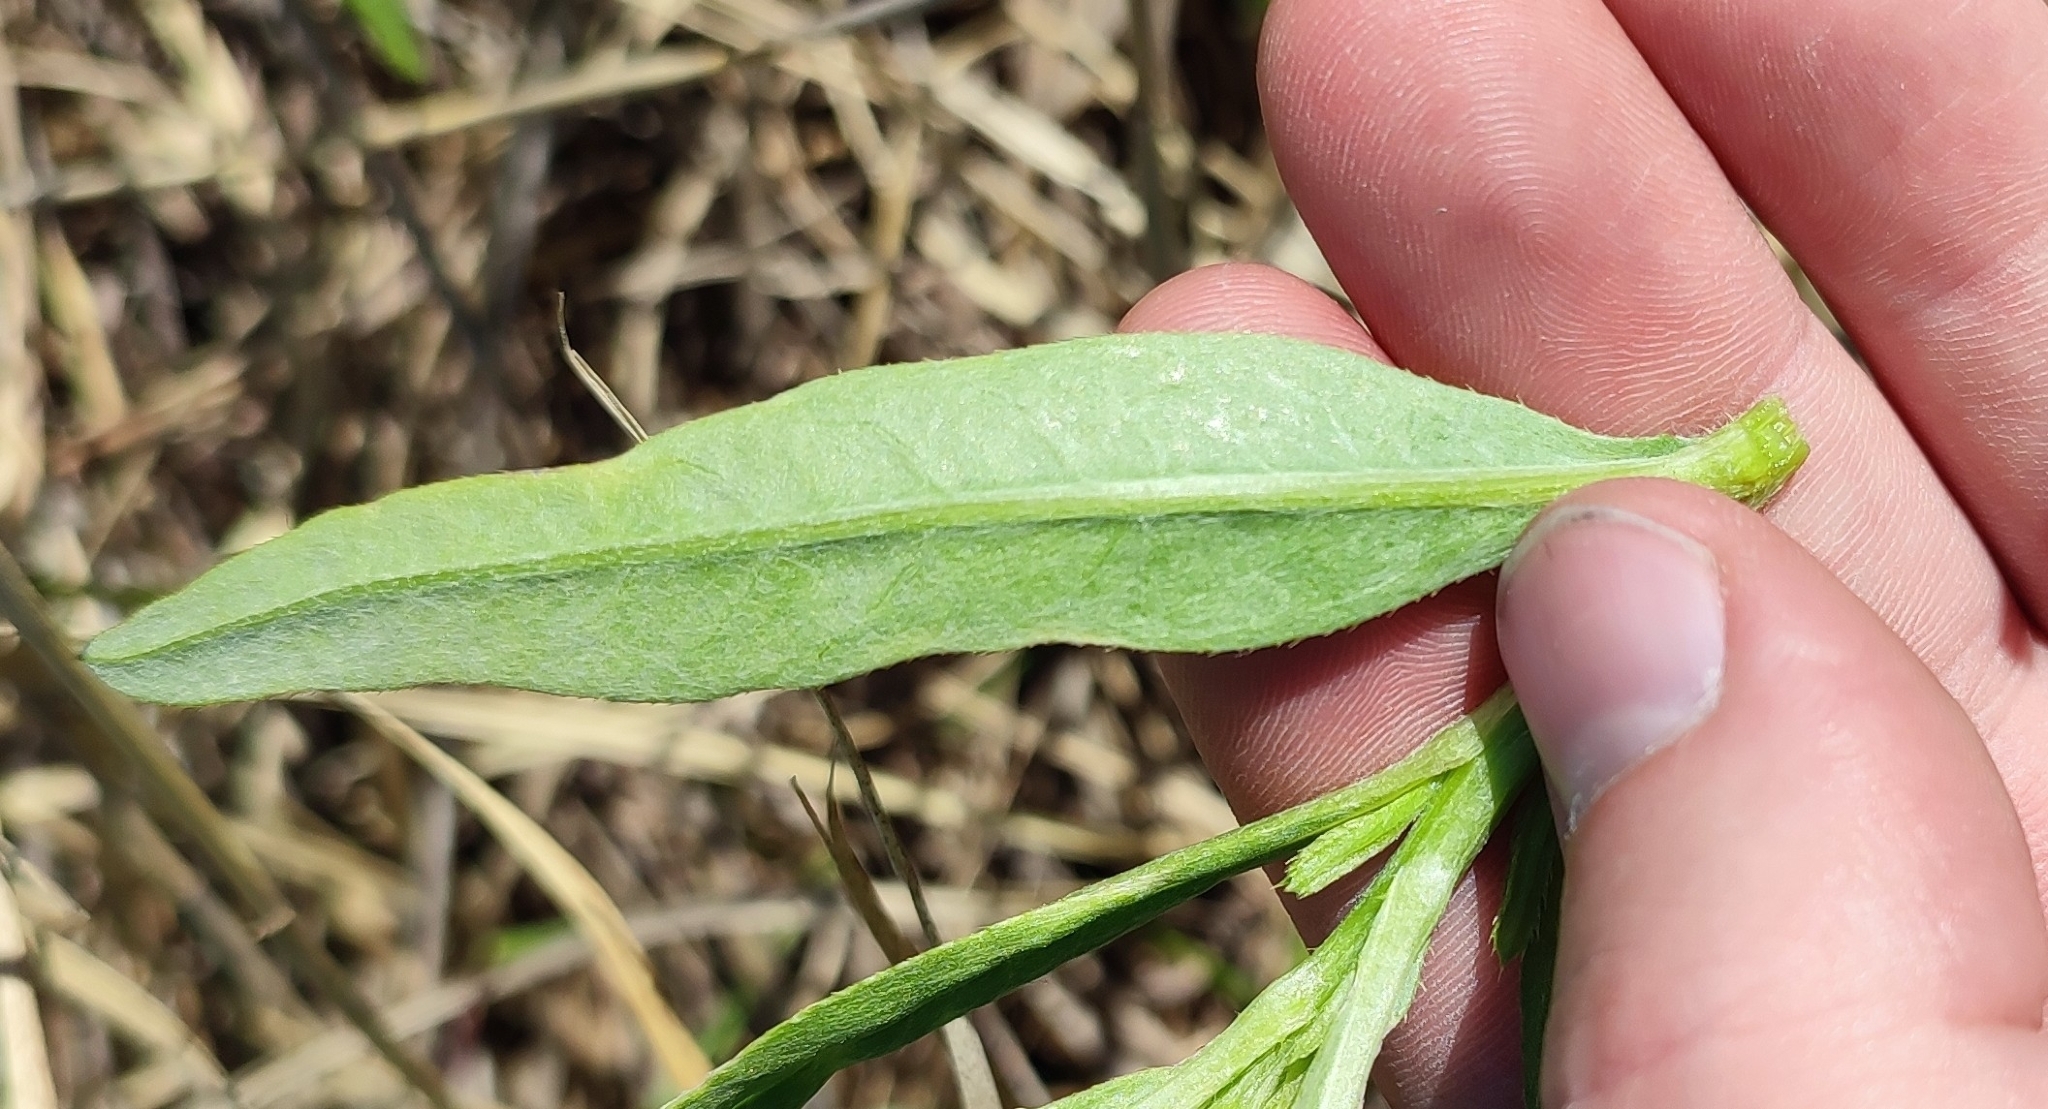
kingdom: Plantae
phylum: Tracheophyta
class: Magnoliopsida
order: Asterales
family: Asteraceae
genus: Cirsium
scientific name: Cirsium arvense
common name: Creeping thistle
